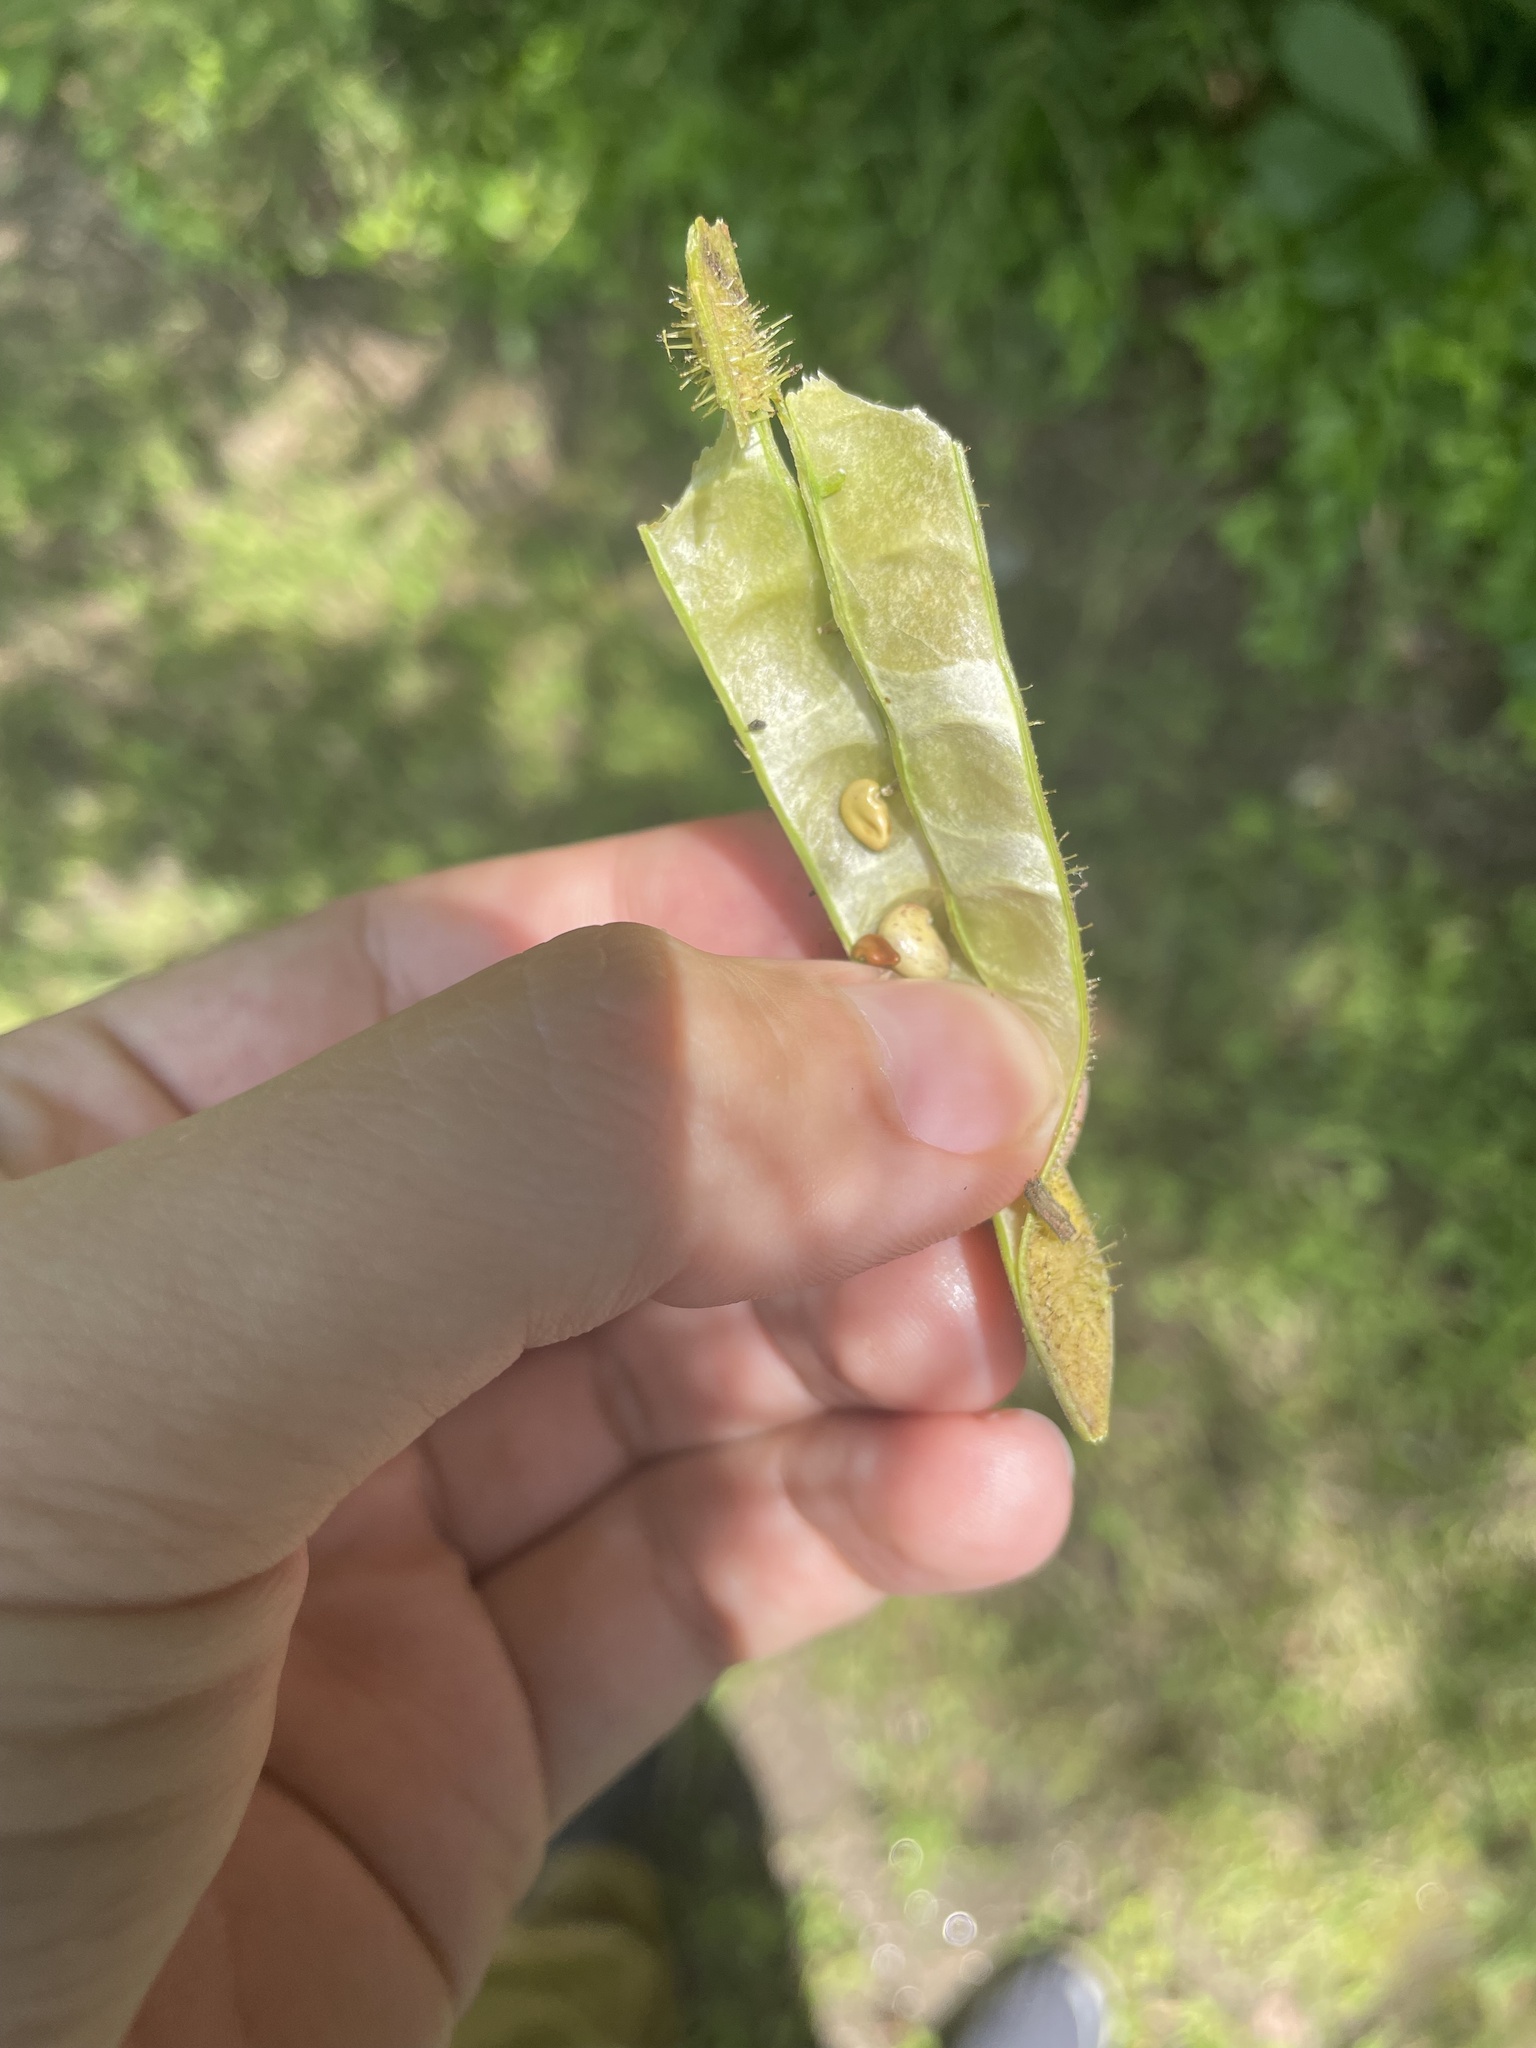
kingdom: Plantae
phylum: Tracheophyta
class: Magnoliopsida
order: Fabales
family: Fabaceae
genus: Robinia
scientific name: Robinia viscosa
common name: Clammy locust
